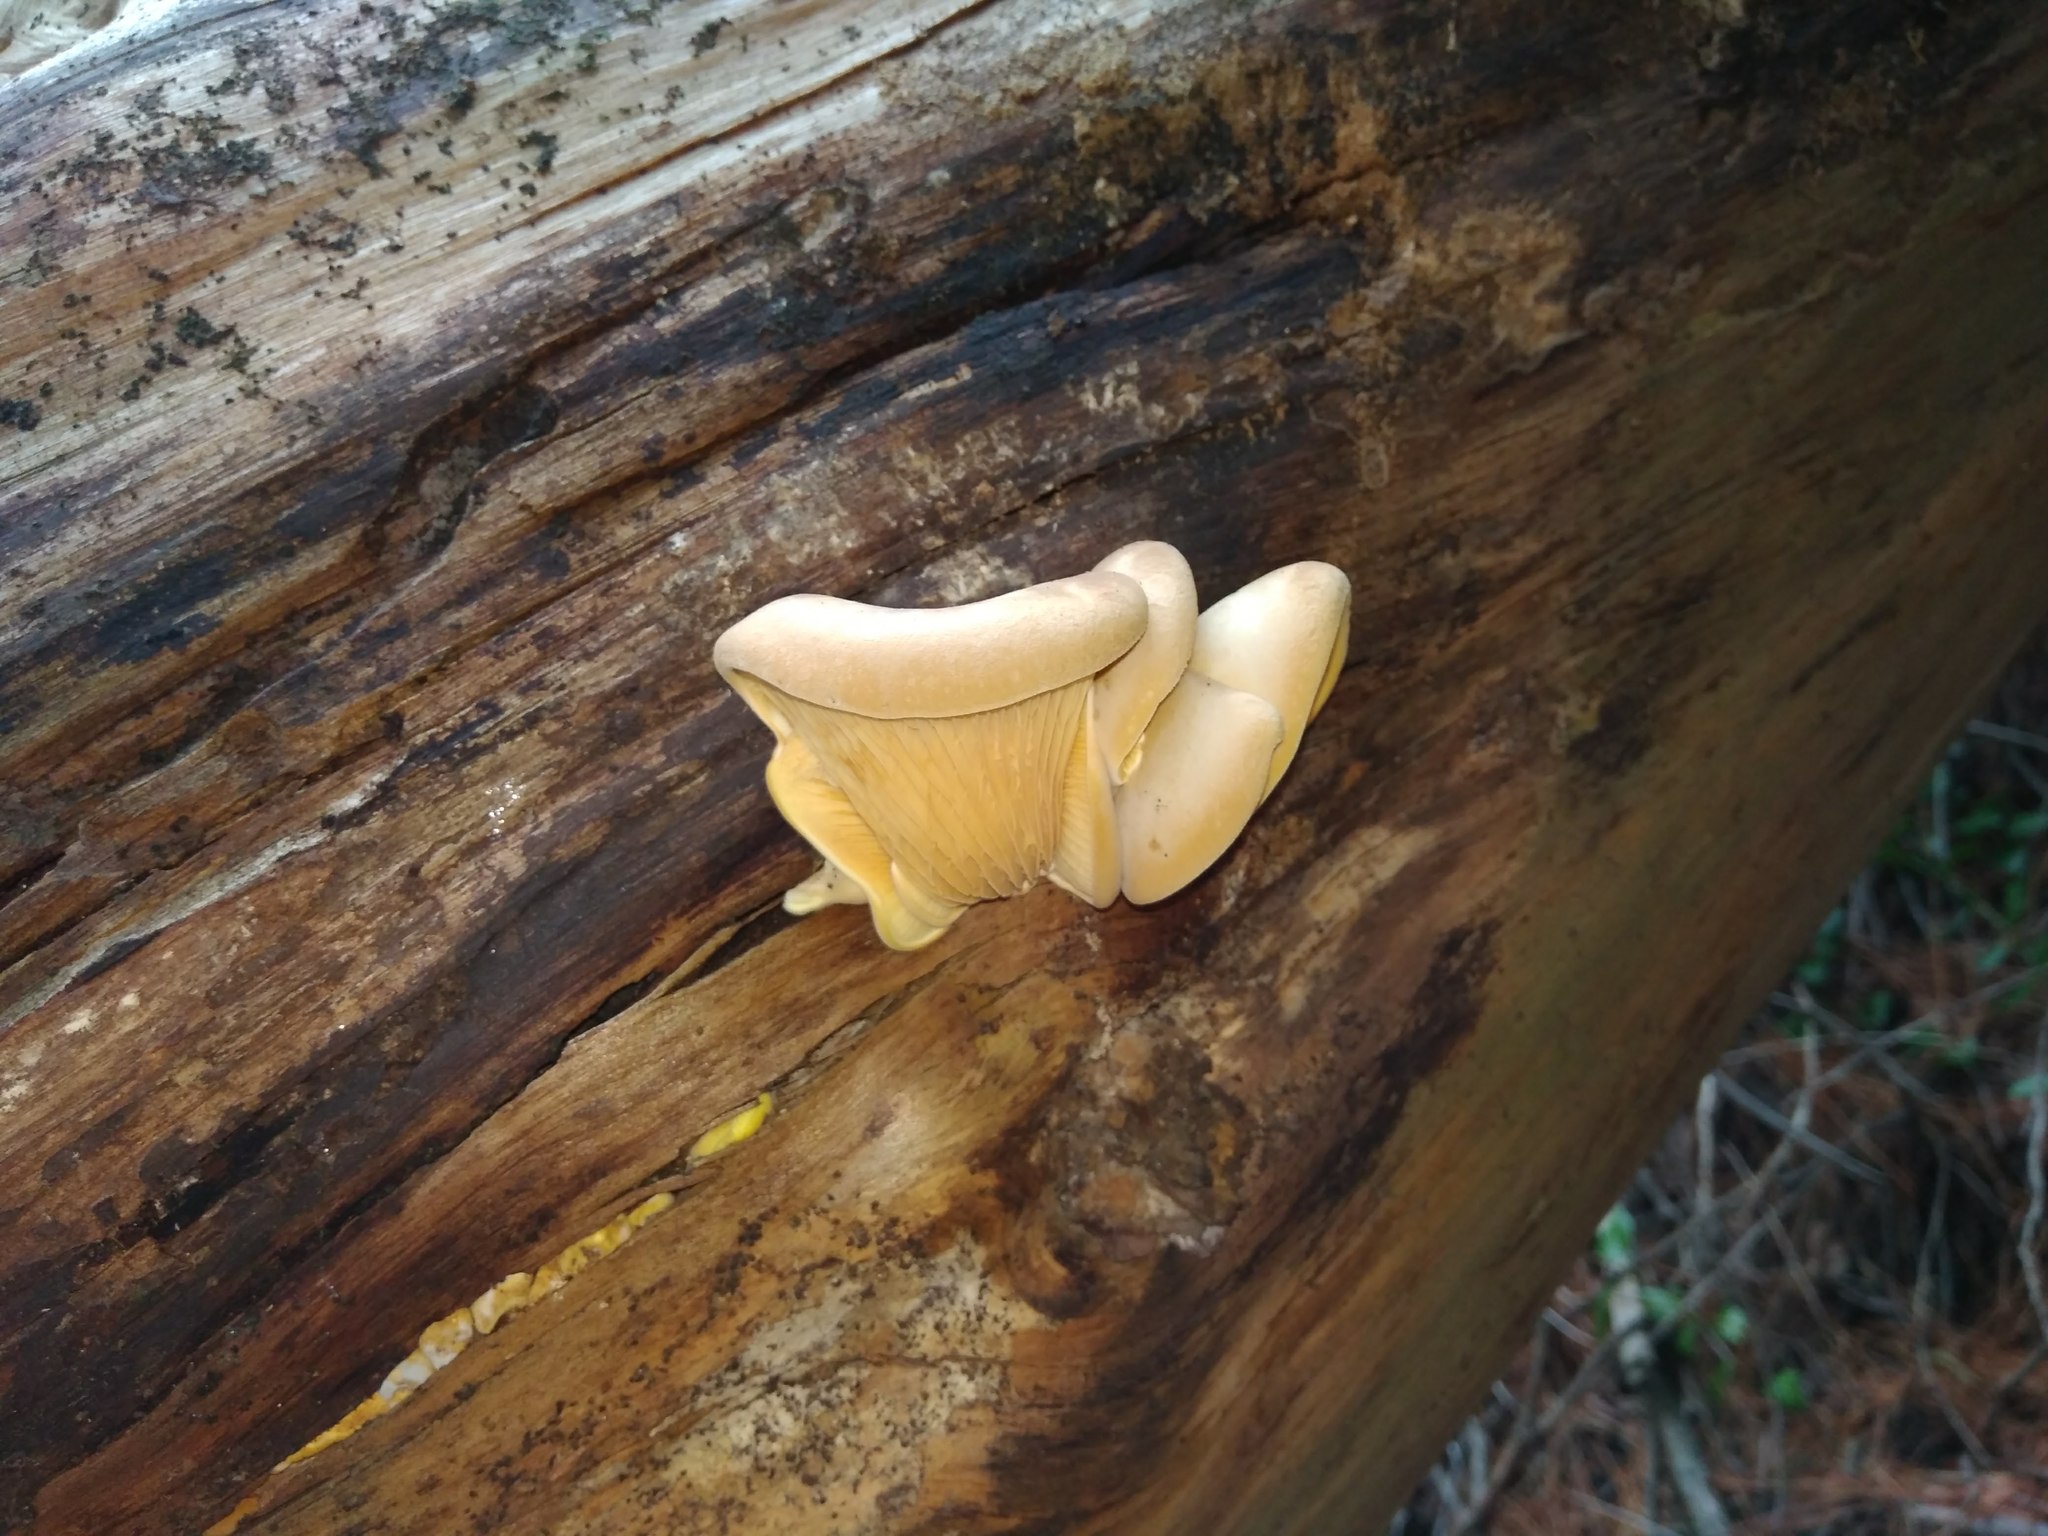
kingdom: Fungi
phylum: Basidiomycota
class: Agaricomycetes
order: Boletales
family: Tapinellaceae
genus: Tapinella
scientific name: Tapinella panuoides
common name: Oyster rollrim
